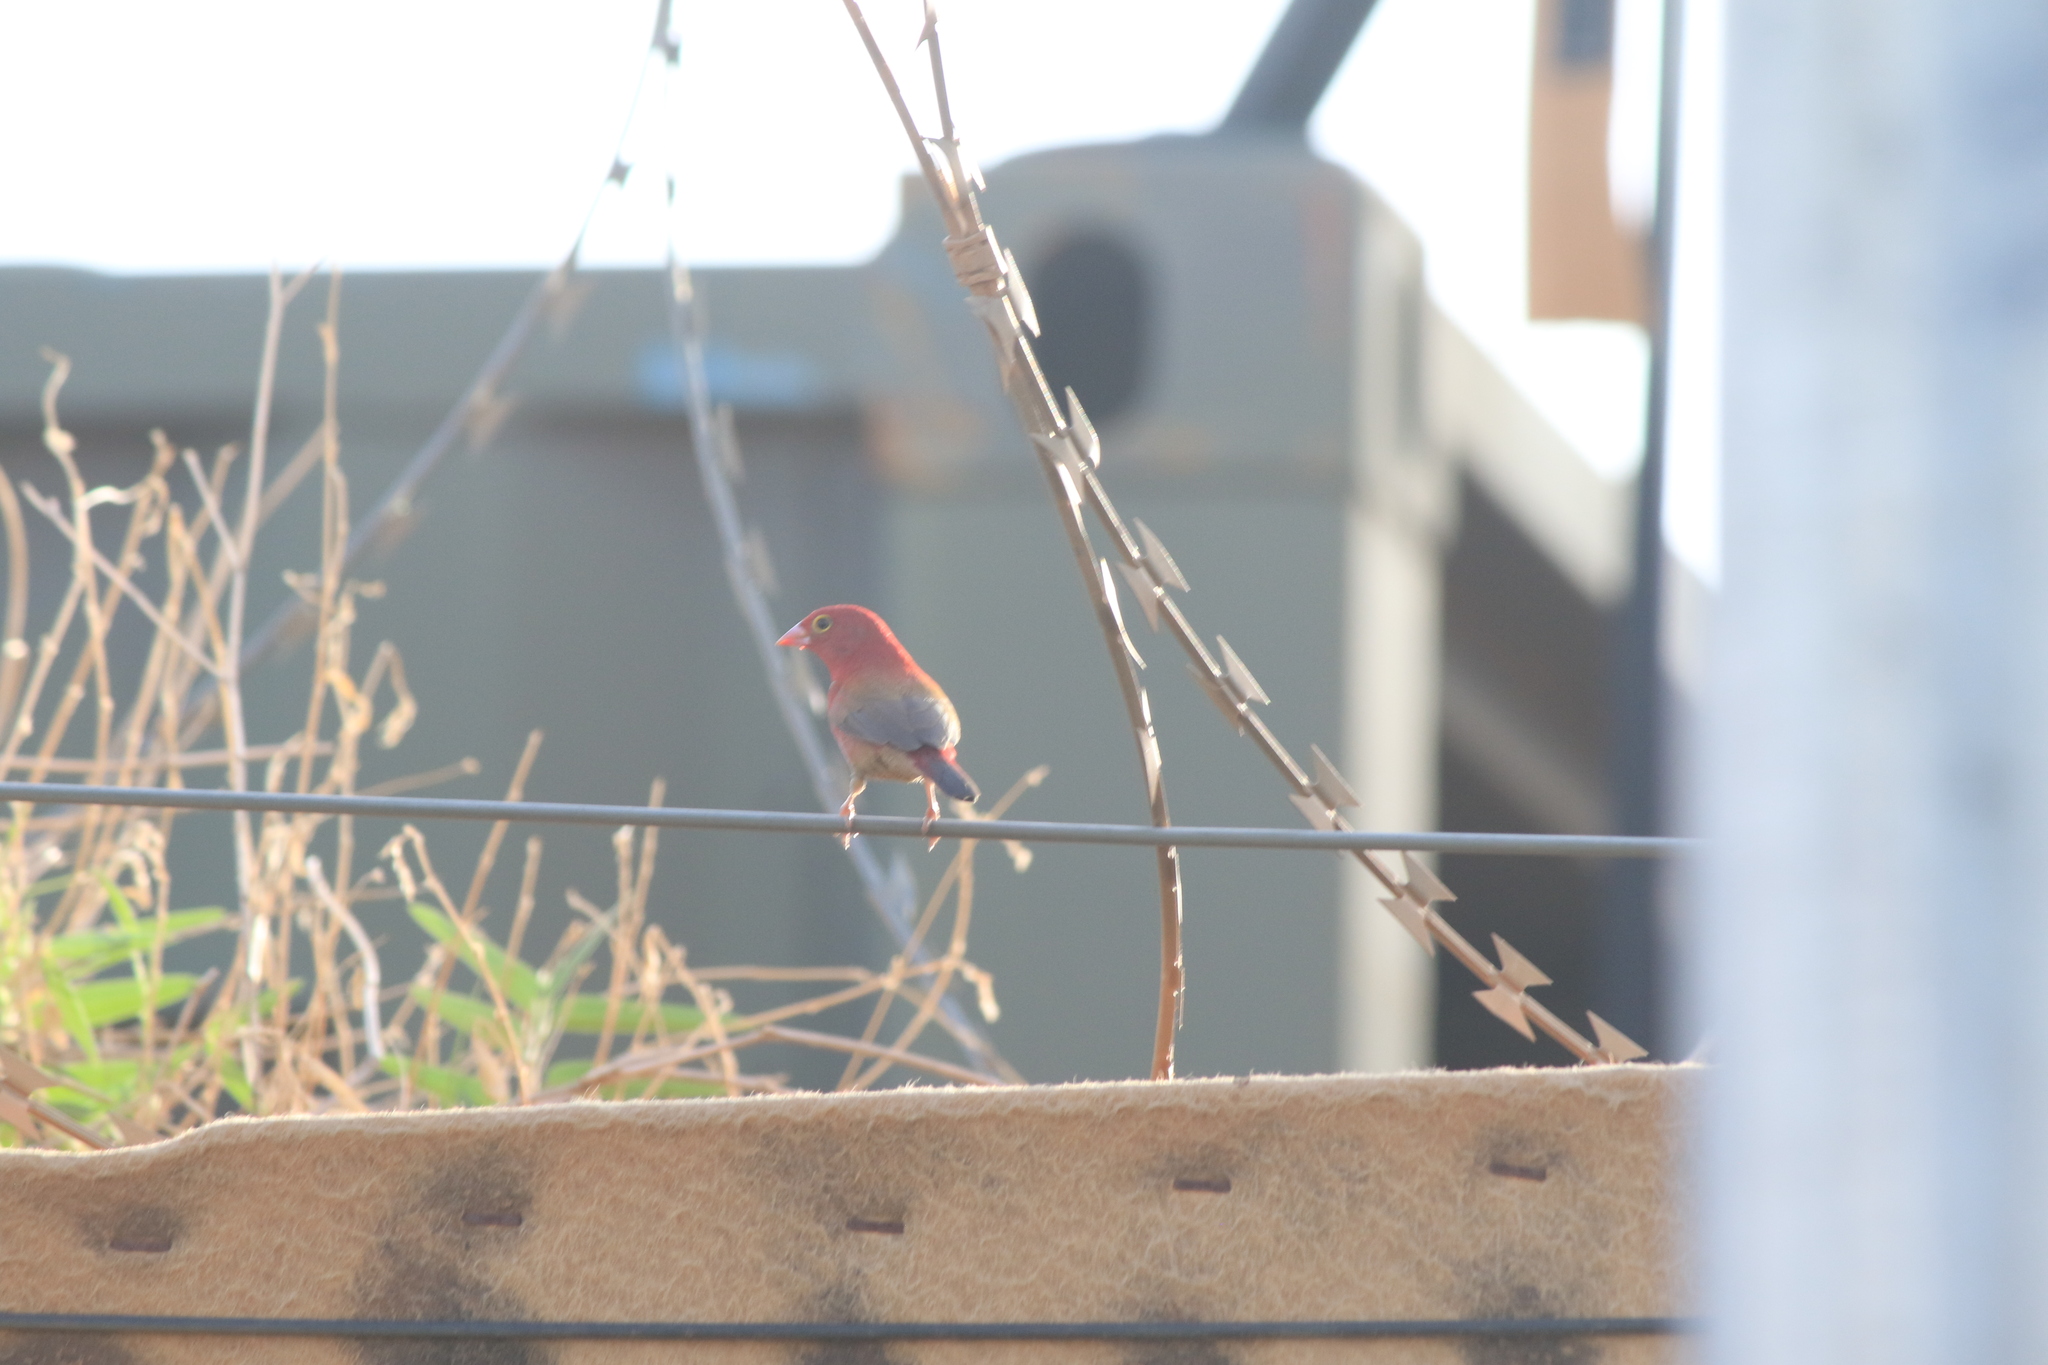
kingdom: Animalia
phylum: Chordata
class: Aves
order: Passeriformes
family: Estrildidae
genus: Lagonosticta
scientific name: Lagonosticta senegala
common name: Red-billed firefinch
